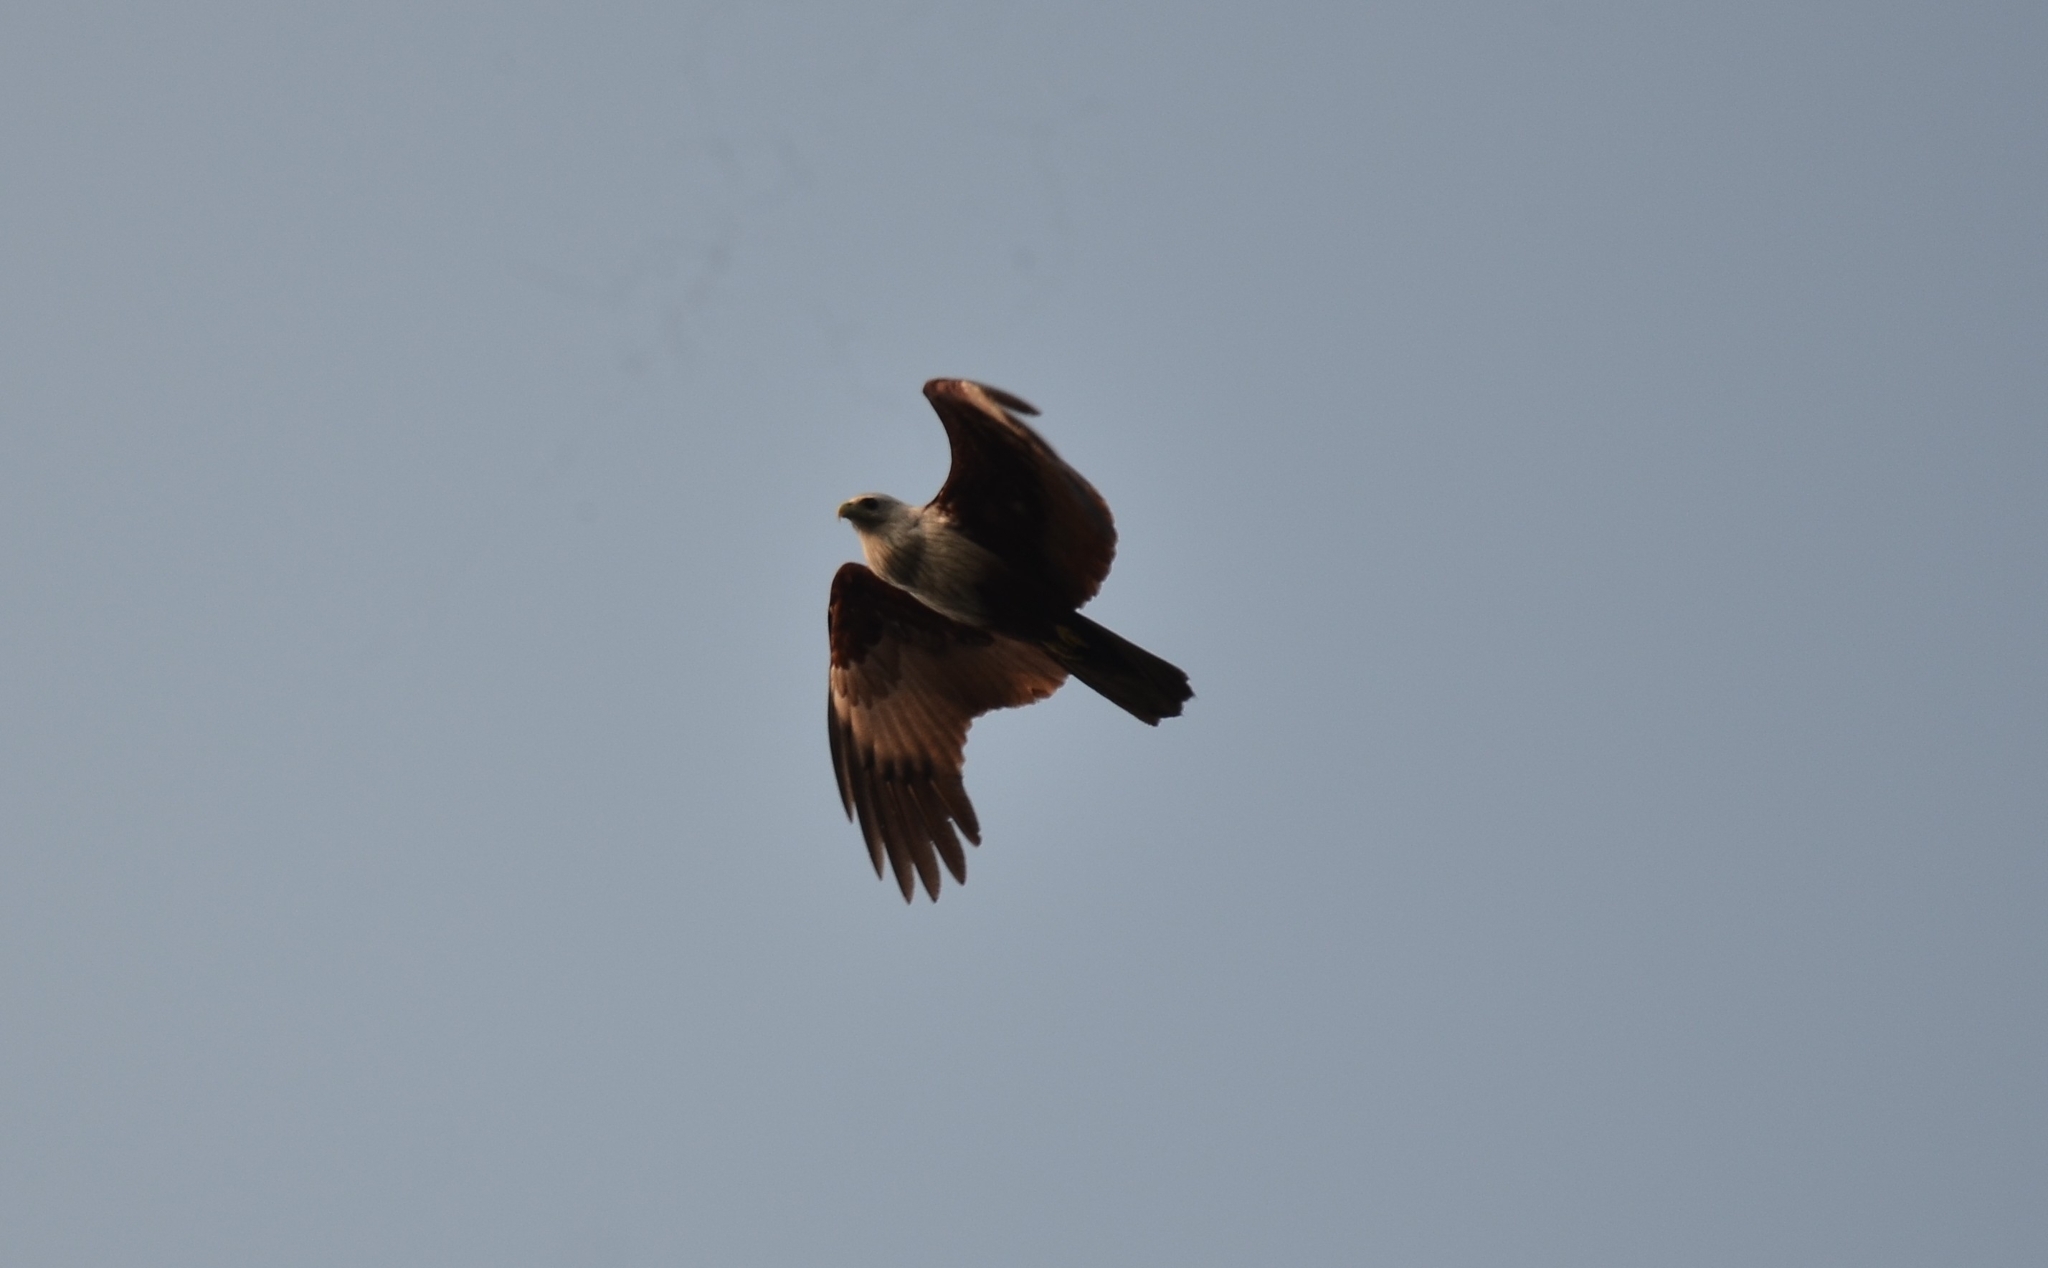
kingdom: Animalia
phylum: Chordata
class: Aves
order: Accipitriformes
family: Accipitridae
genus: Haliastur
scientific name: Haliastur indus
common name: Brahminy kite
